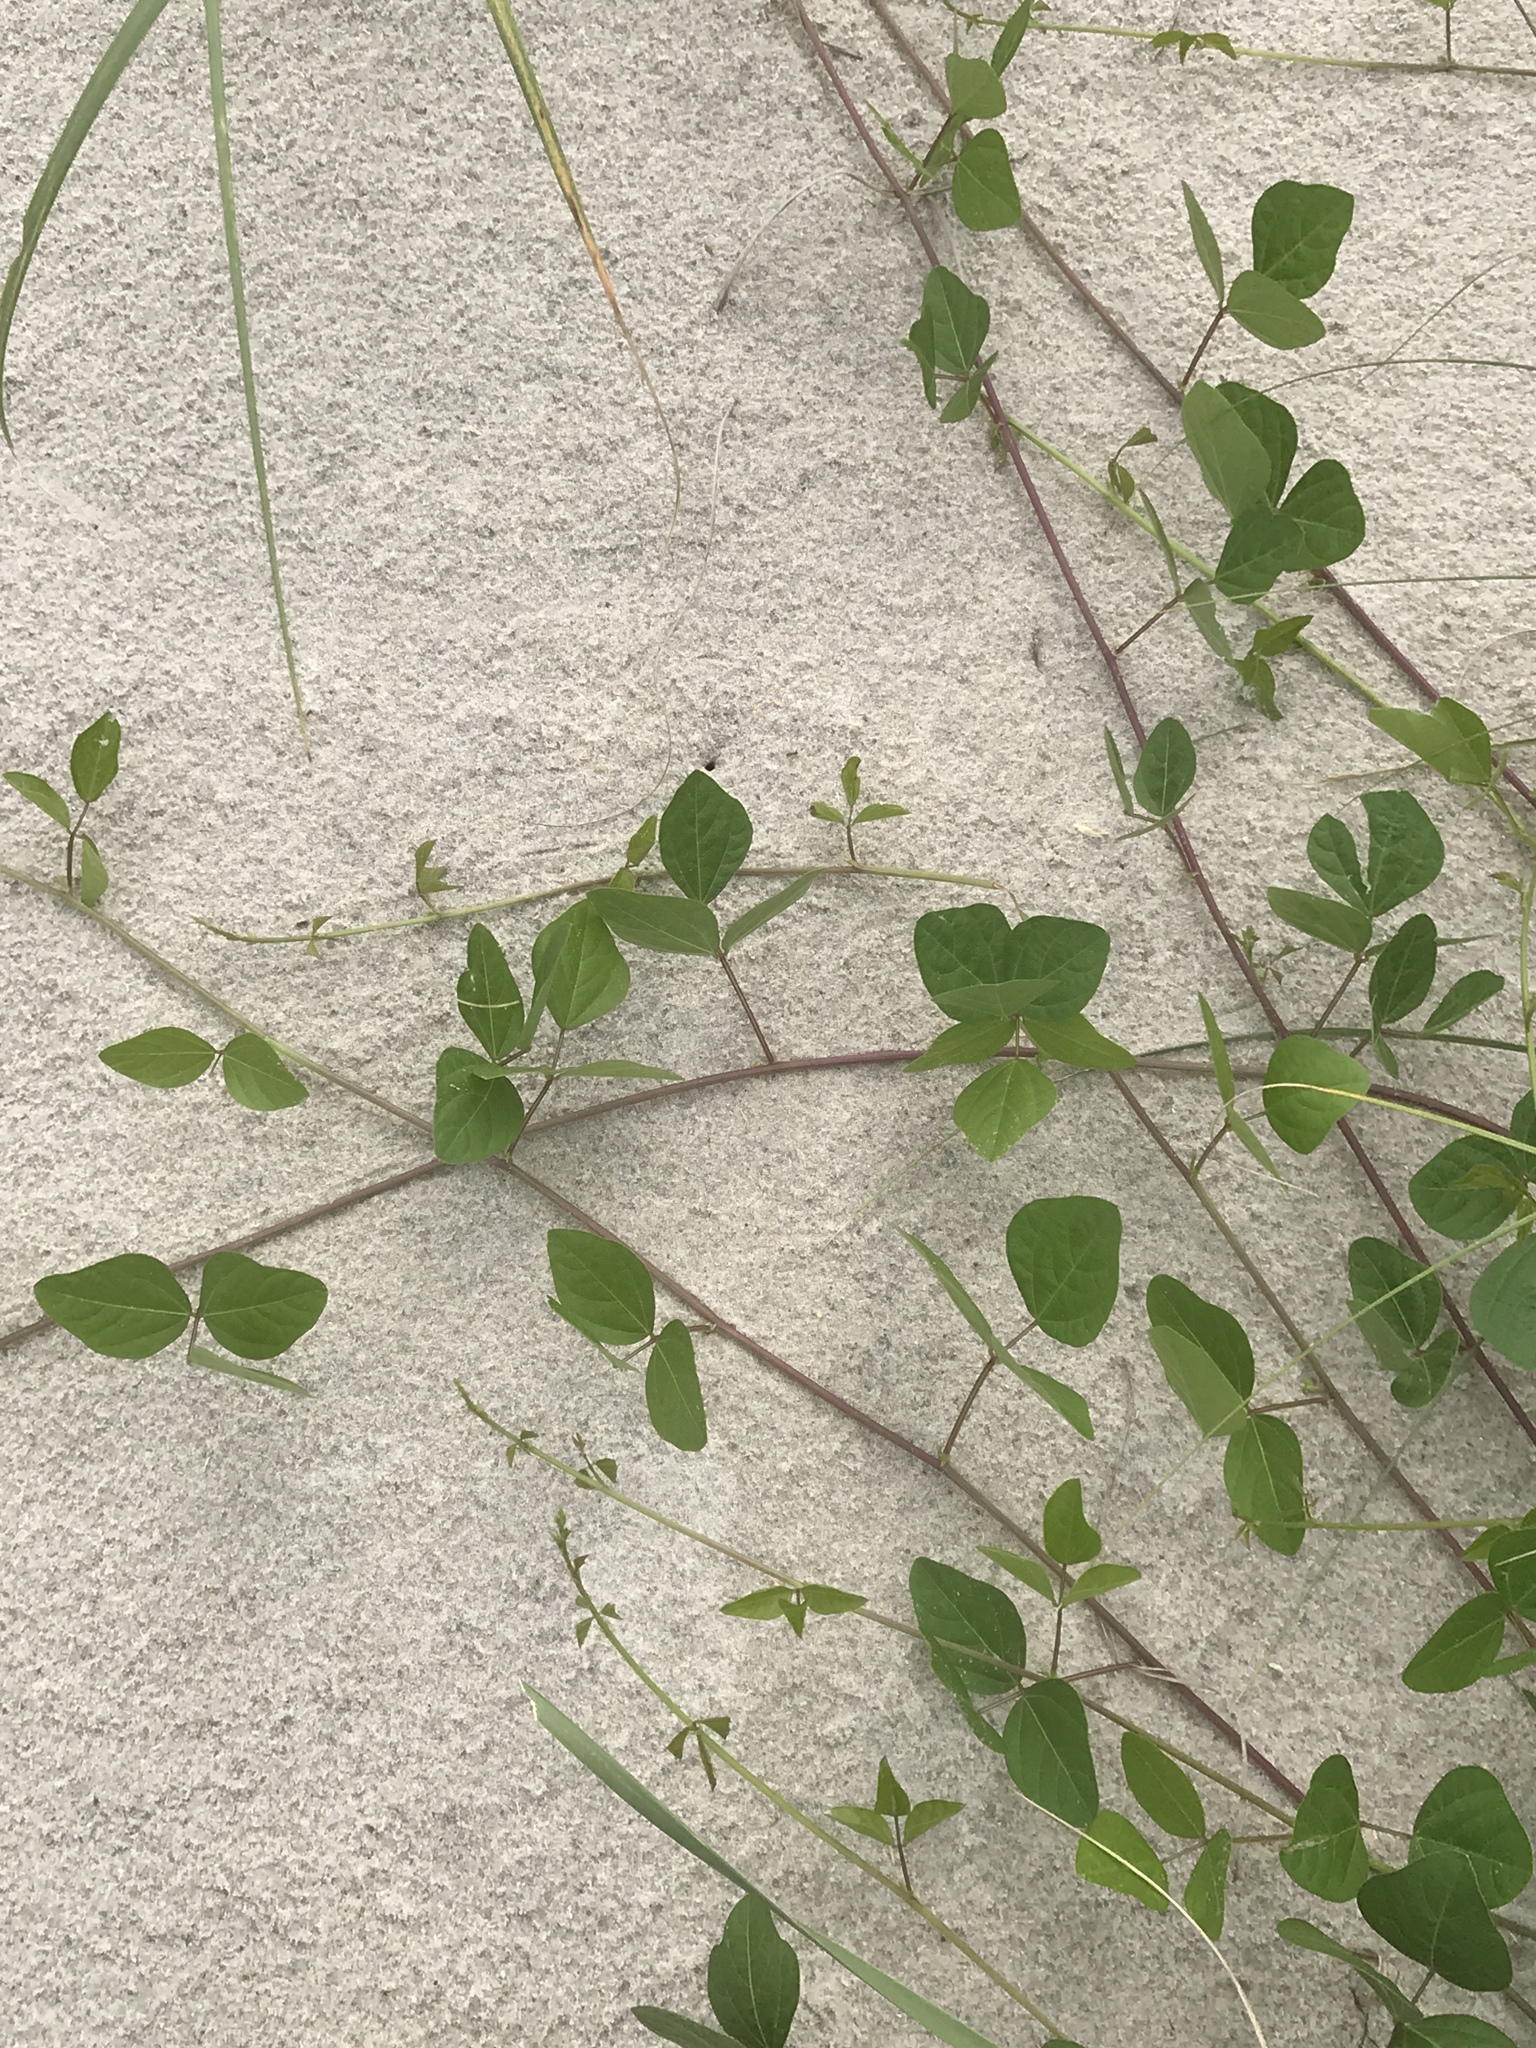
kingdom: Plantae
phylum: Tracheophyta
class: Magnoliopsida
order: Fabales
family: Fabaceae
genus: Strophostyles
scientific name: Strophostyles helvola
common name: Trailing wild bean
